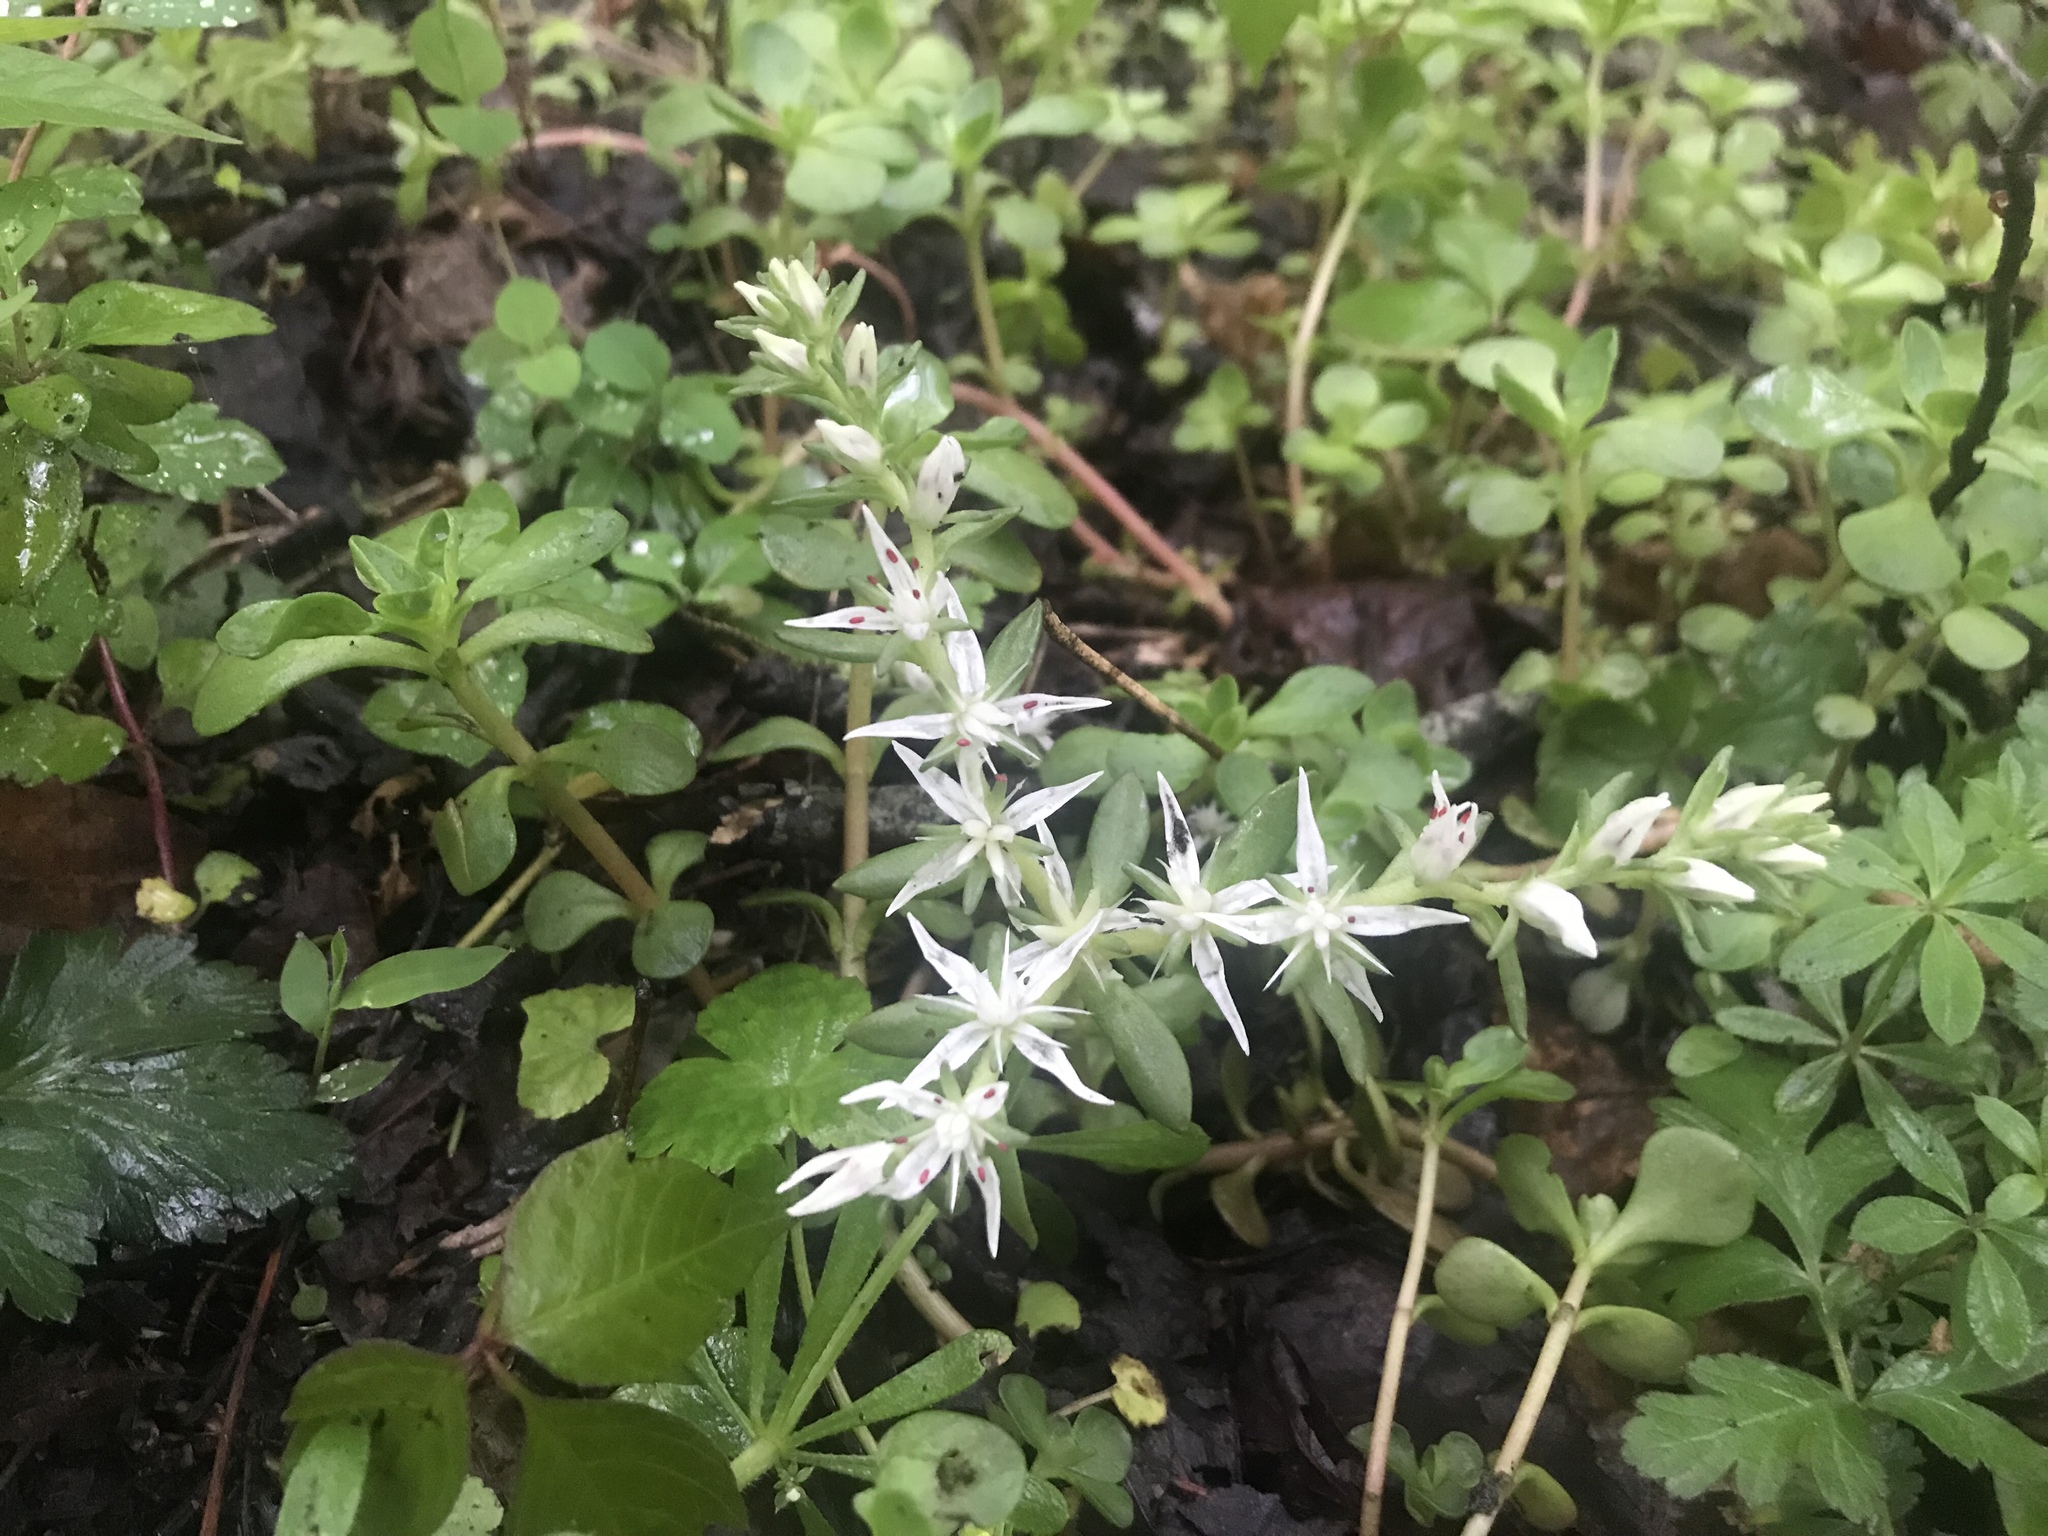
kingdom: Plantae
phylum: Tracheophyta
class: Magnoliopsida
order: Saxifragales
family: Crassulaceae
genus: Sedum
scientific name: Sedum ternatum
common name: Wild stonecrop
